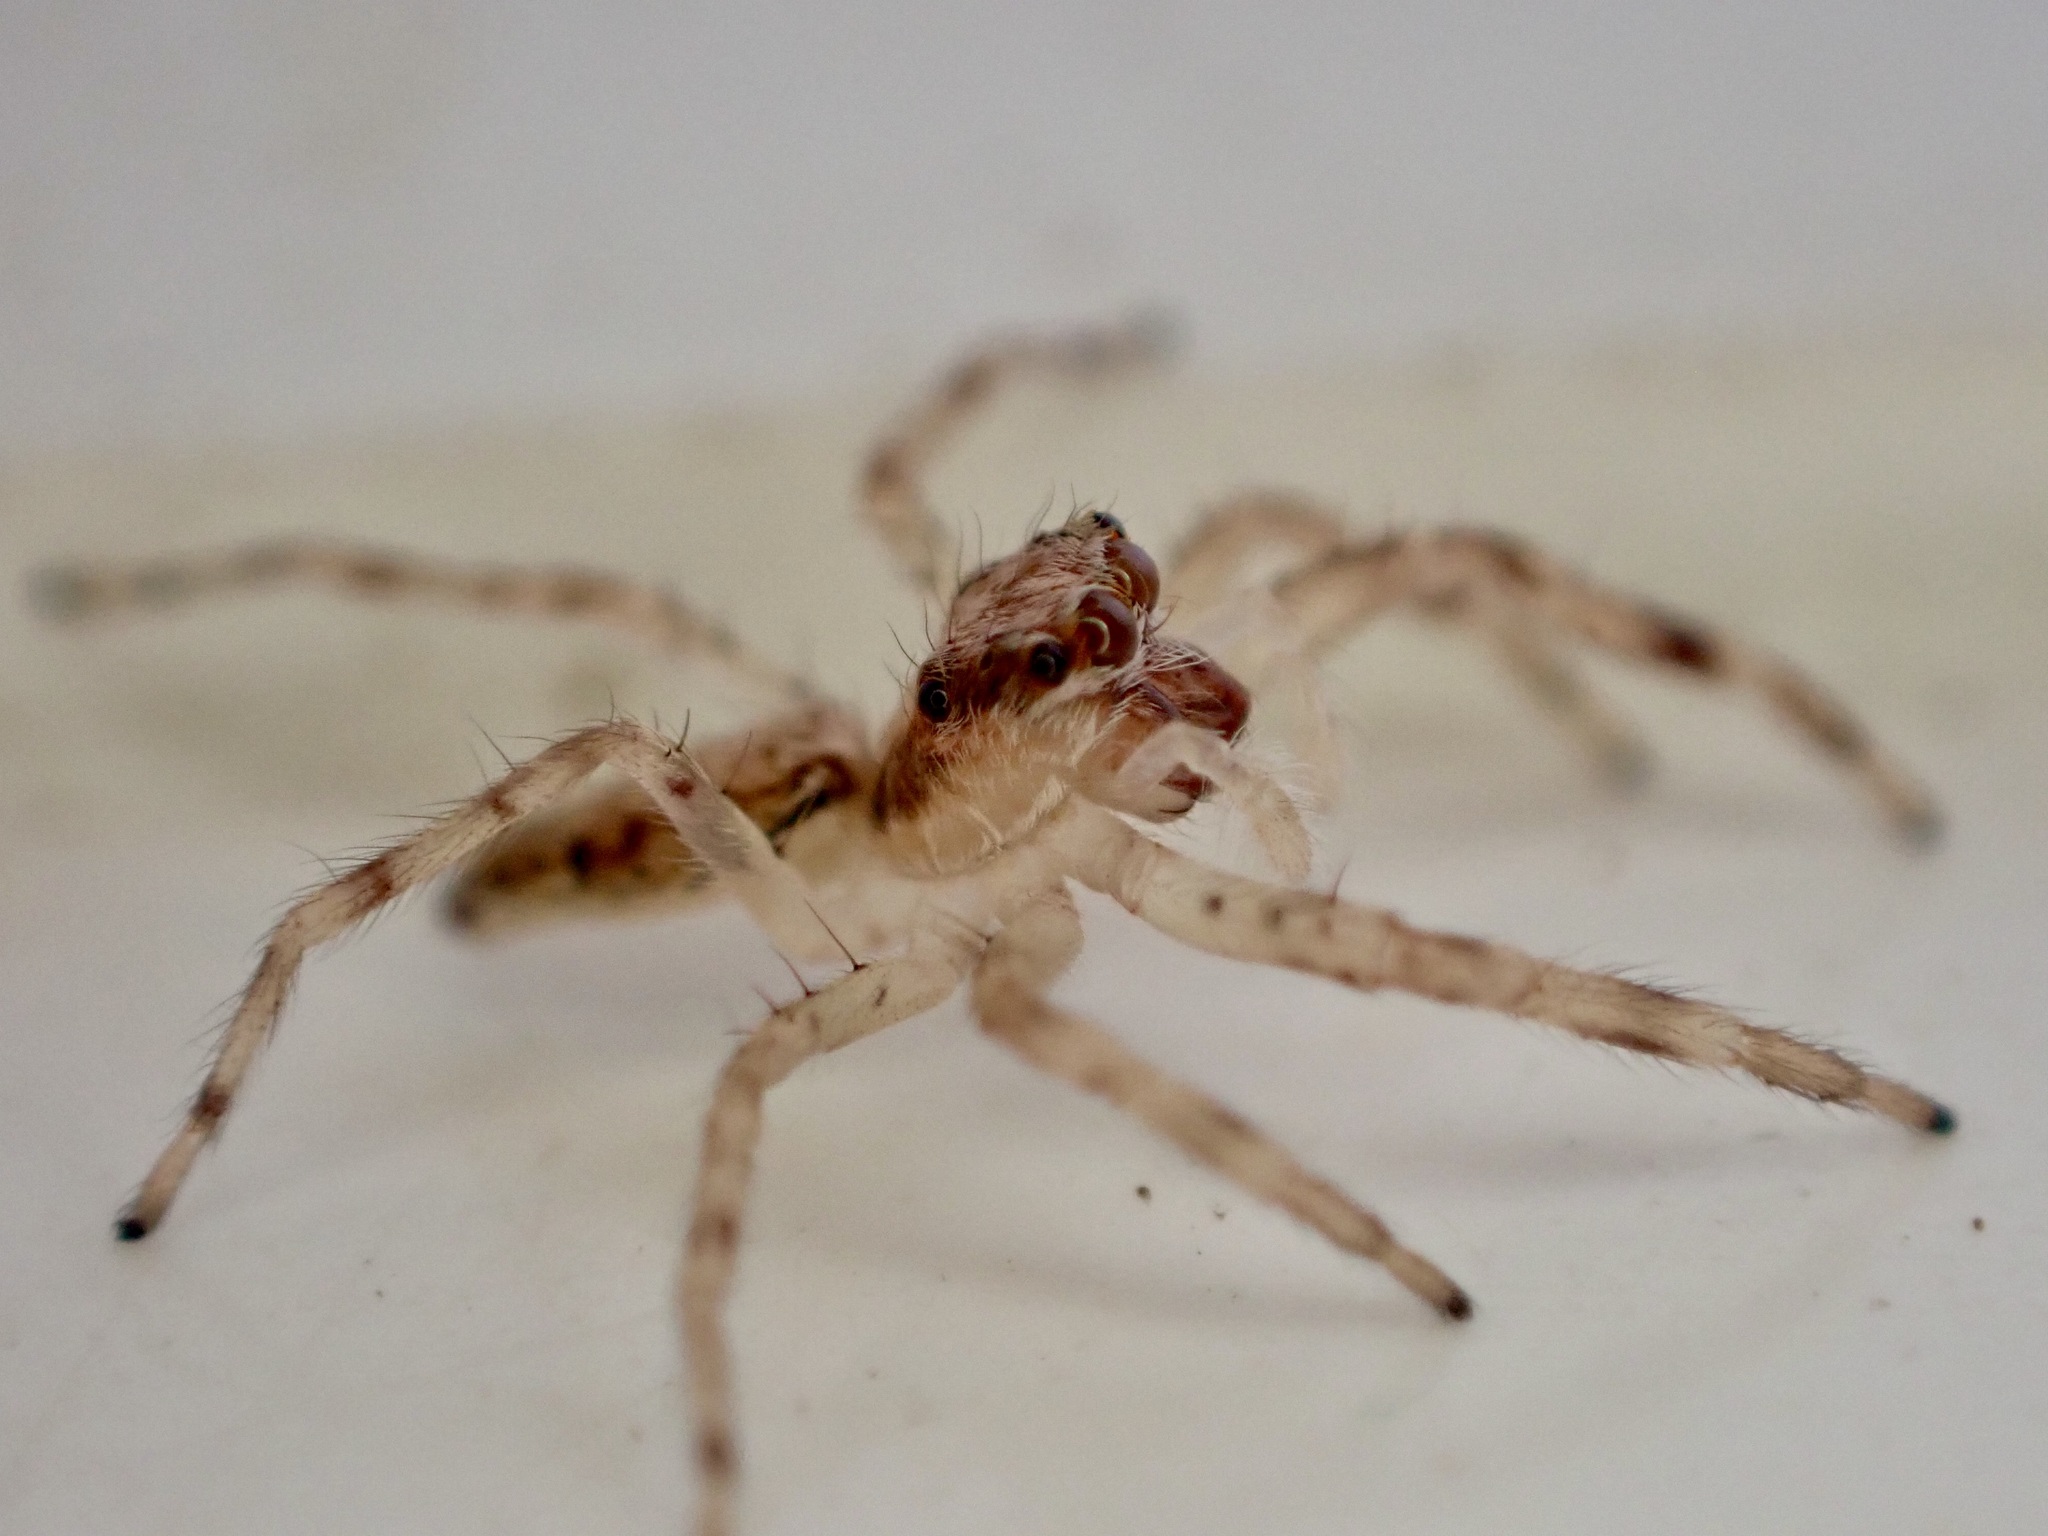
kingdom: Animalia
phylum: Arthropoda
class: Arachnida
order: Araneae
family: Salticidae
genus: Helpis
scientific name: Helpis minitabunda
